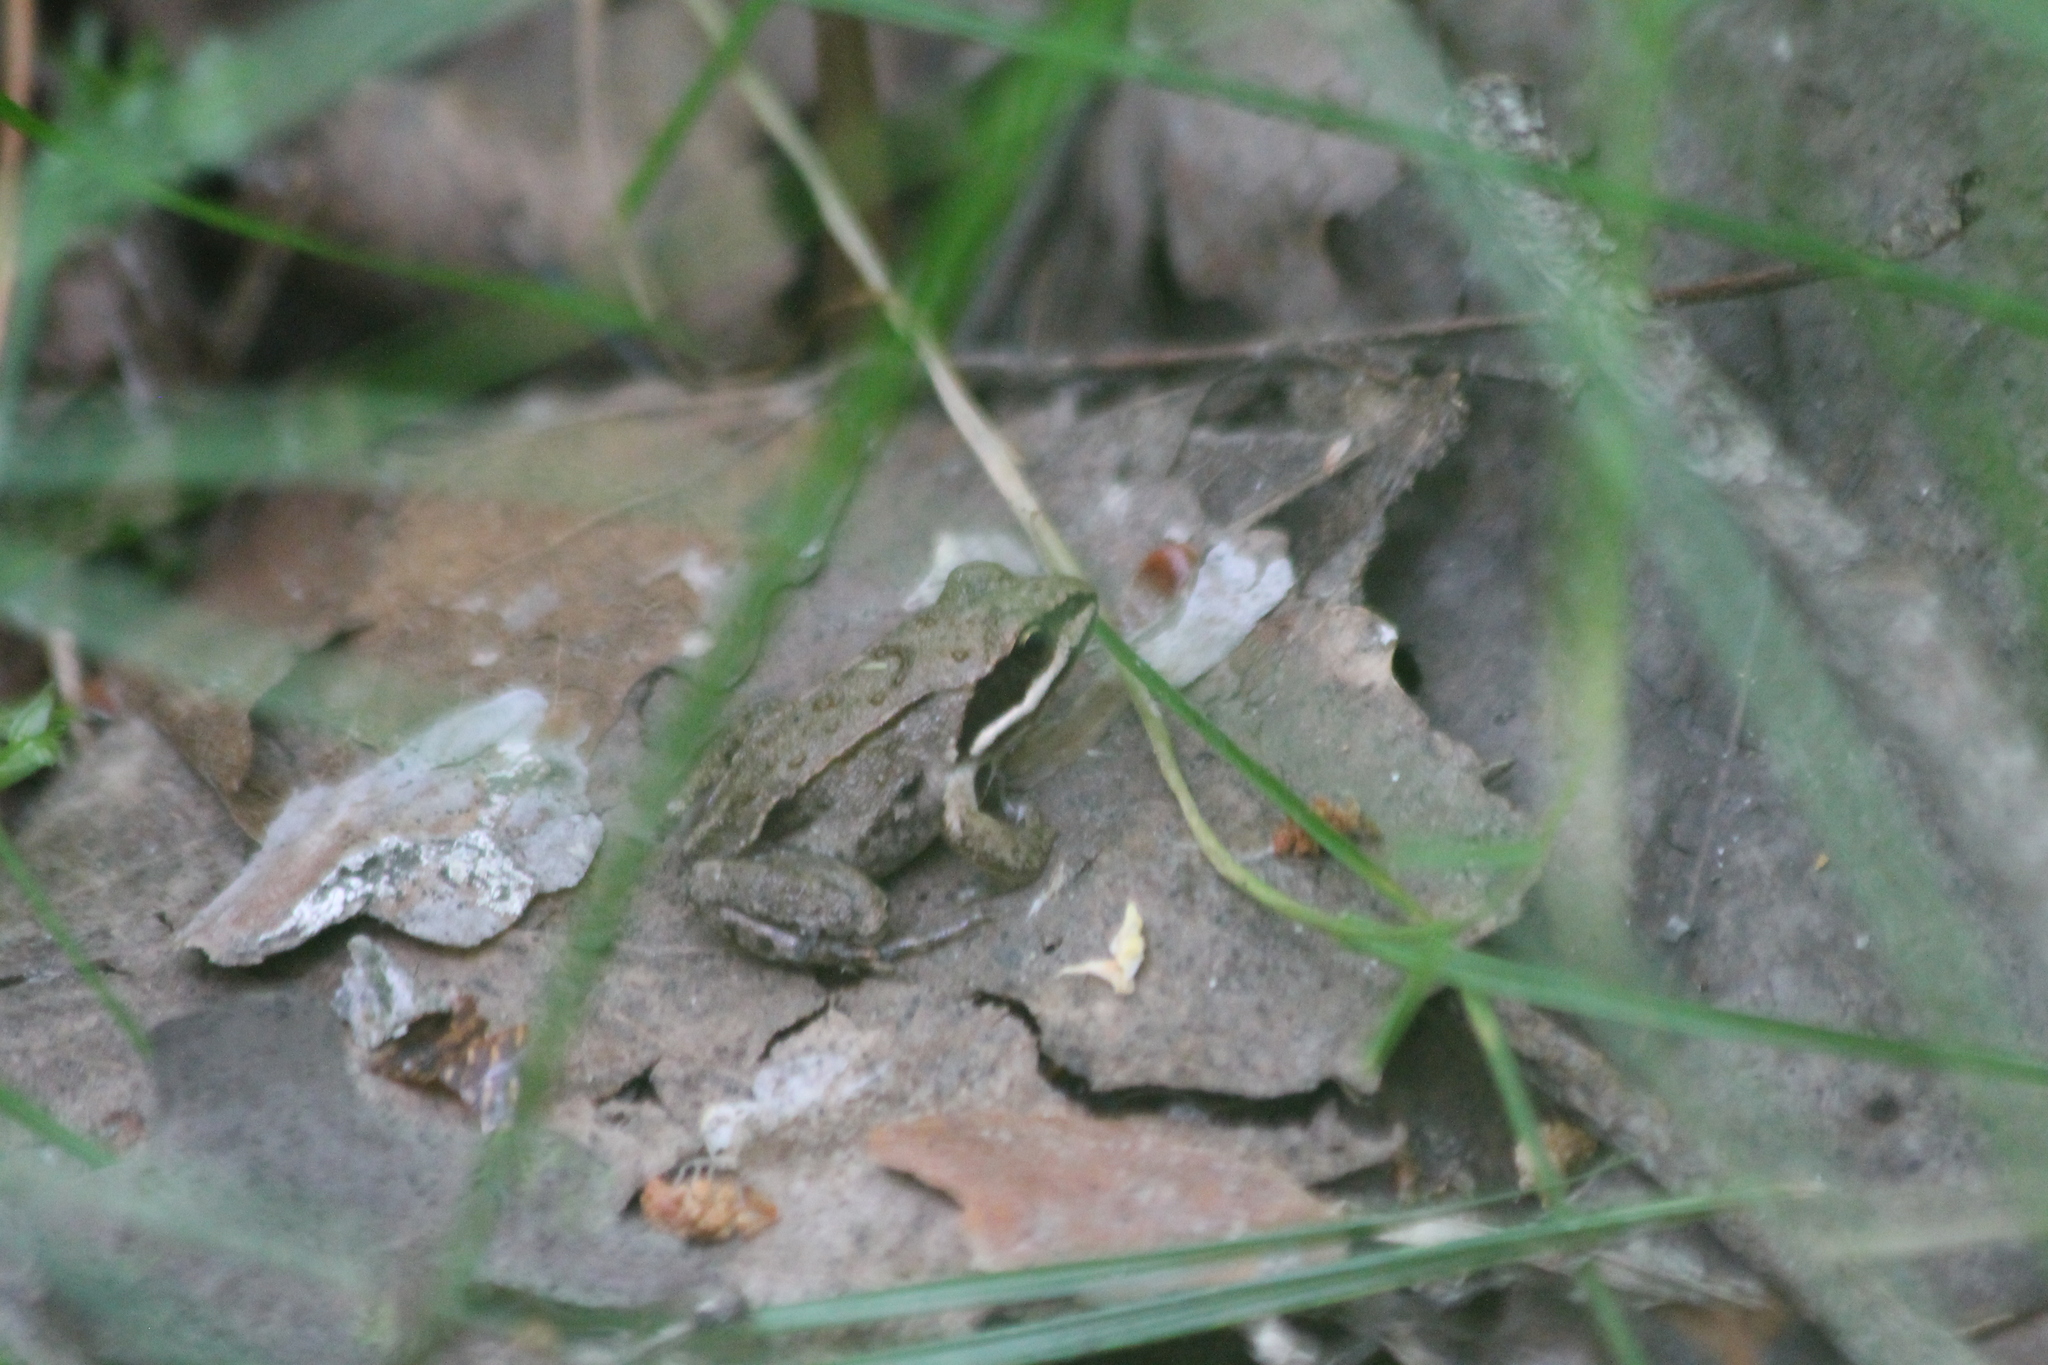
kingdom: Animalia
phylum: Chordata
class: Amphibia
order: Anura
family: Ranidae
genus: Rana
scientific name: Rana arvalis
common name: Moor frog
